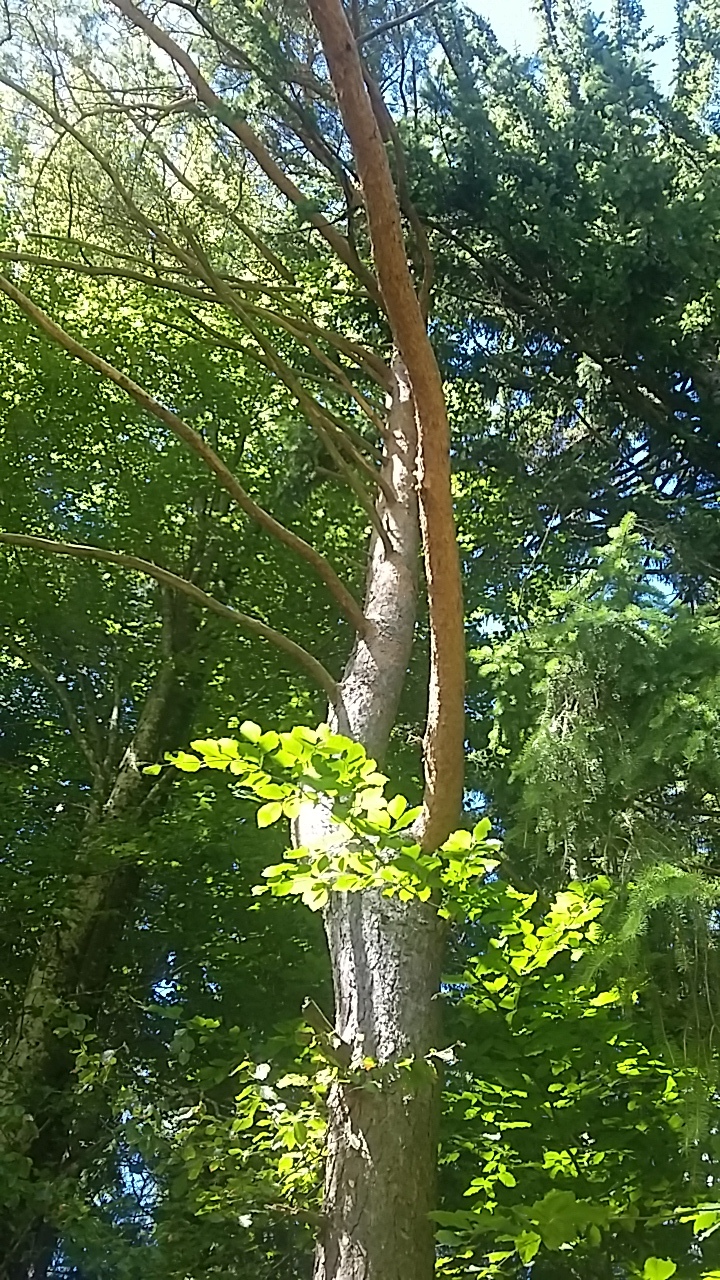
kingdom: Plantae
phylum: Tracheophyta
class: Pinopsida
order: Pinales
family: Pinaceae
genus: Pinus
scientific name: Pinus sylvestris
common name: Scots pine
